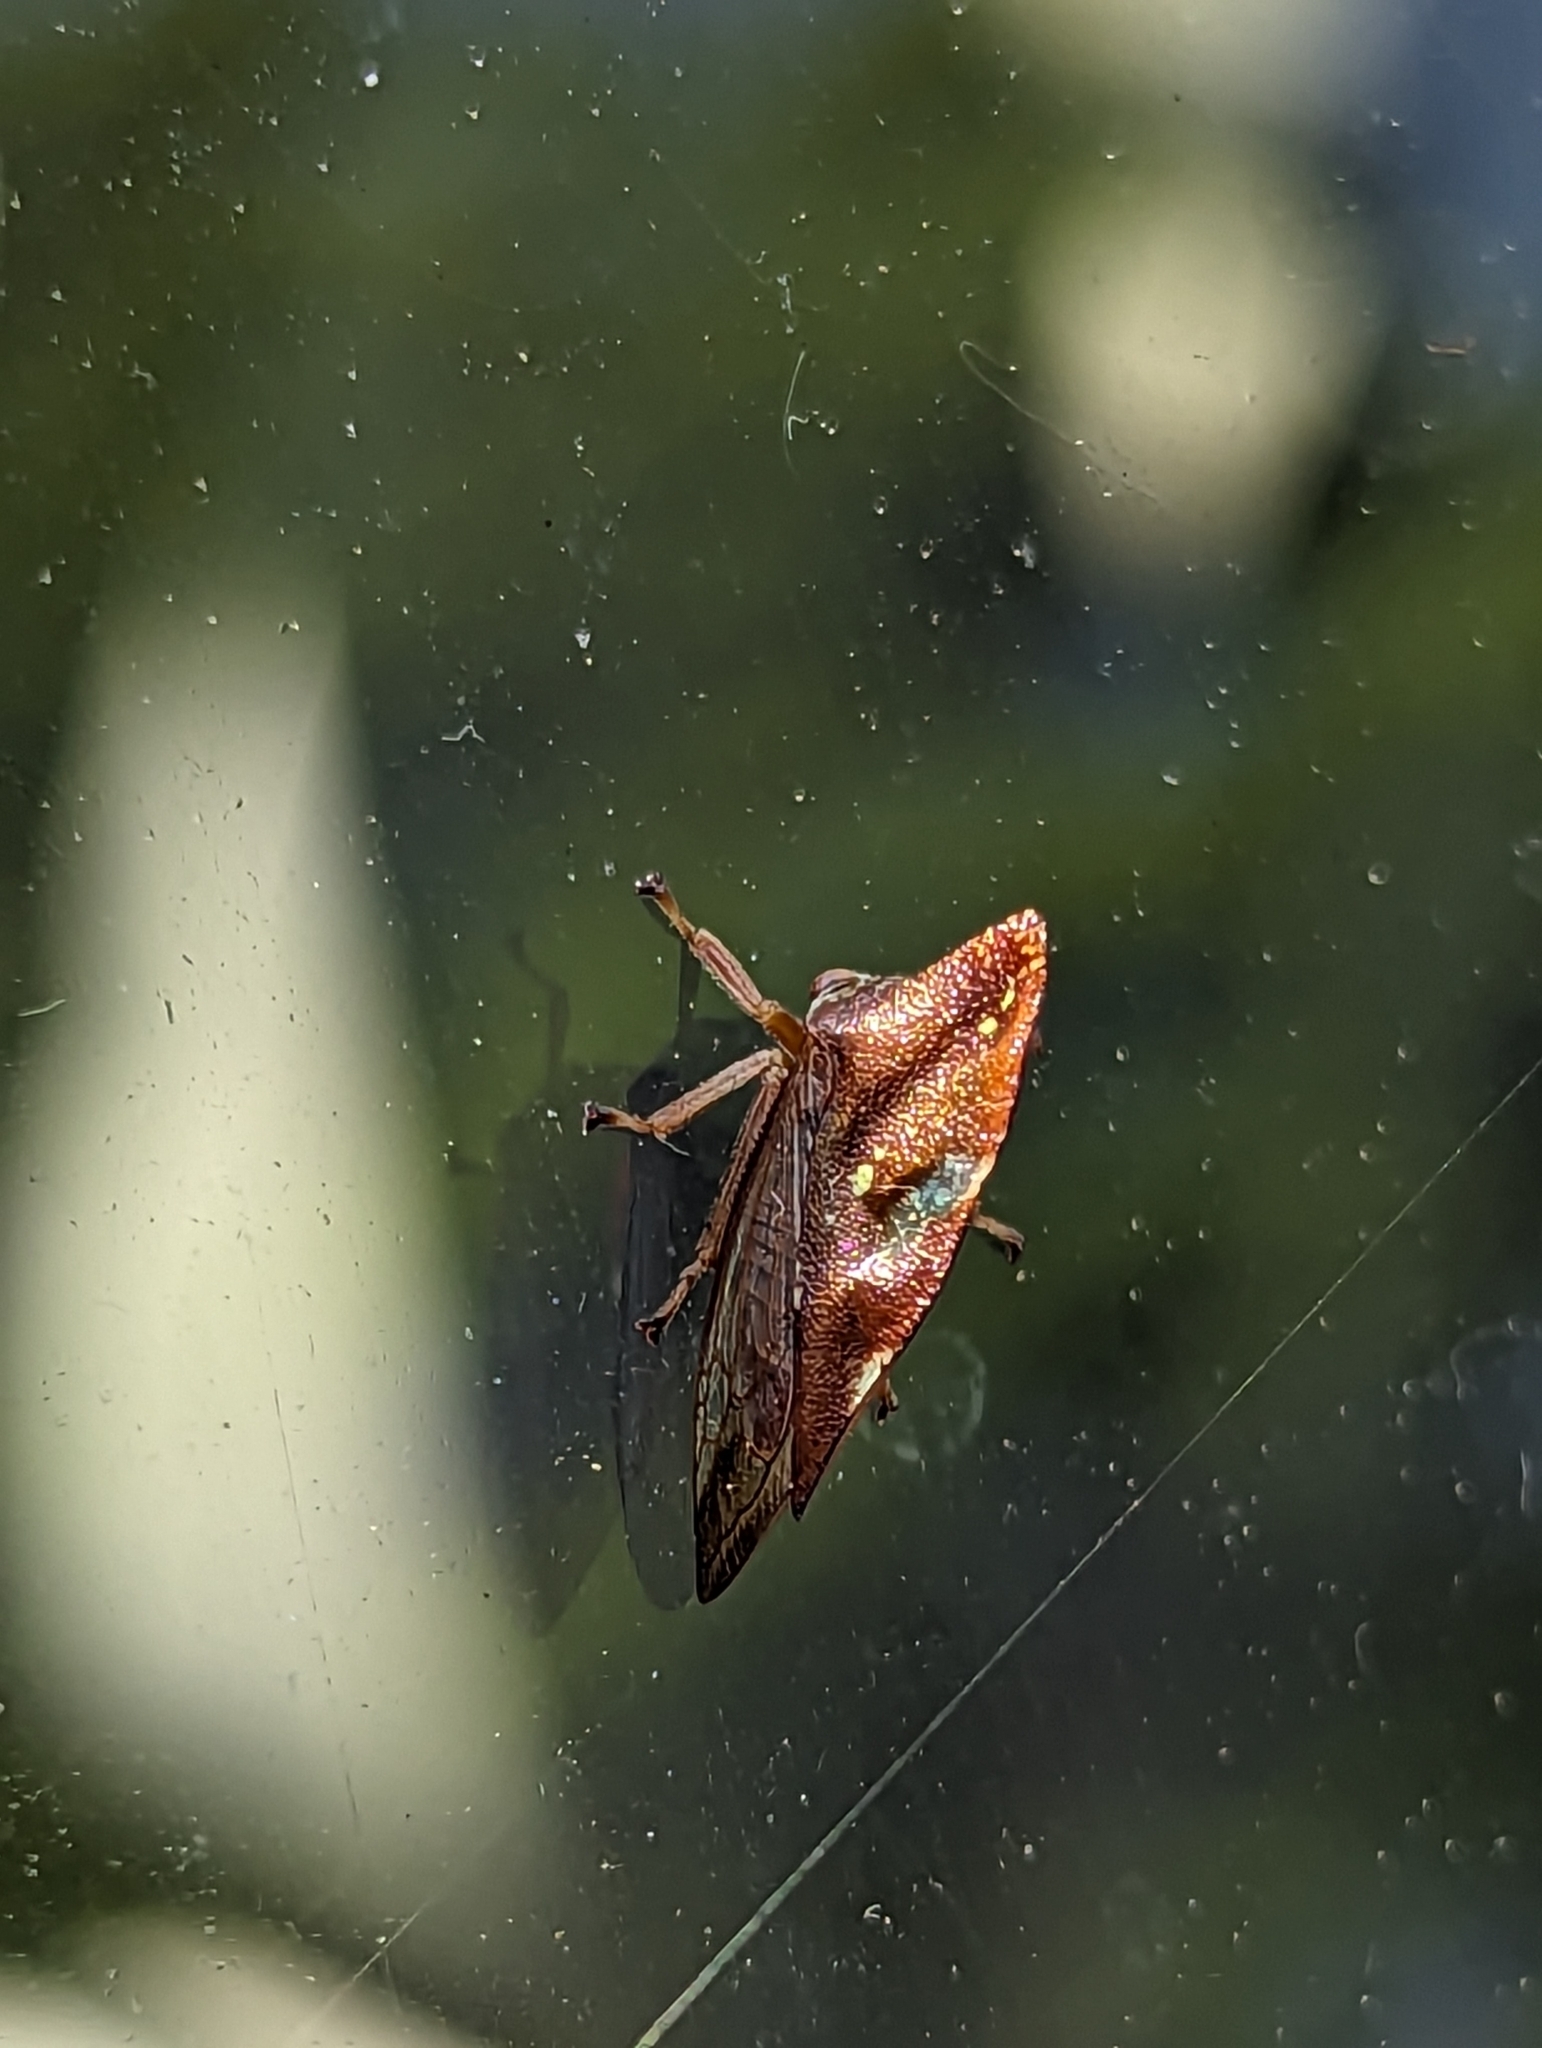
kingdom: Animalia
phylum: Arthropoda
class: Insecta
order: Hemiptera
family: Membracidae
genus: Smilia
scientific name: Smilia camelus
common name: Camel treehopper
